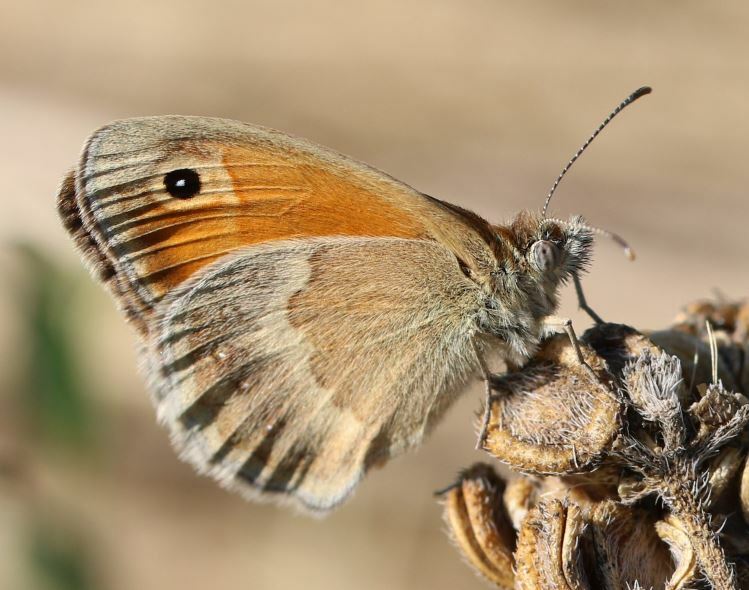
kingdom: Animalia
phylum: Arthropoda
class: Insecta
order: Lepidoptera
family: Nymphalidae
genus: Coenonympha
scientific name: Coenonympha pamphilus
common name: Small heath
